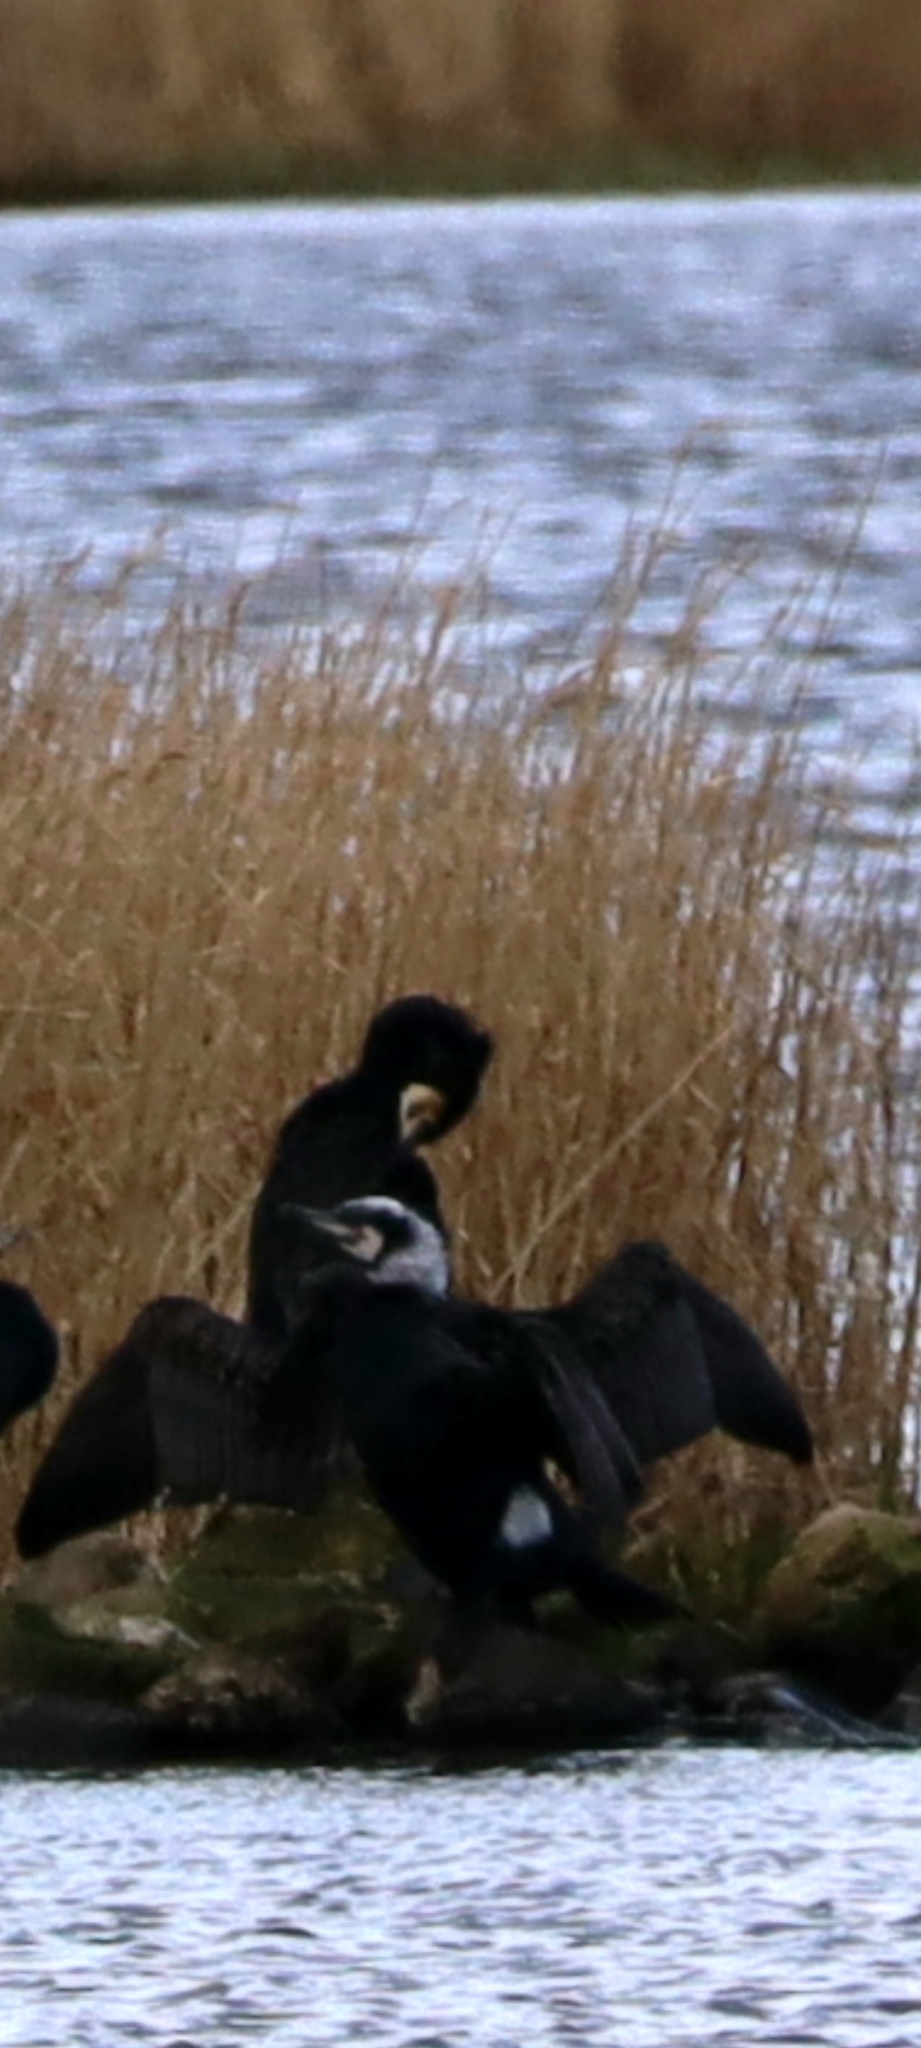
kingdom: Animalia
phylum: Chordata
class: Aves
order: Suliformes
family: Phalacrocoracidae
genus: Phalacrocorax
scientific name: Phalacrocorax carbo
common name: Great cormorant
